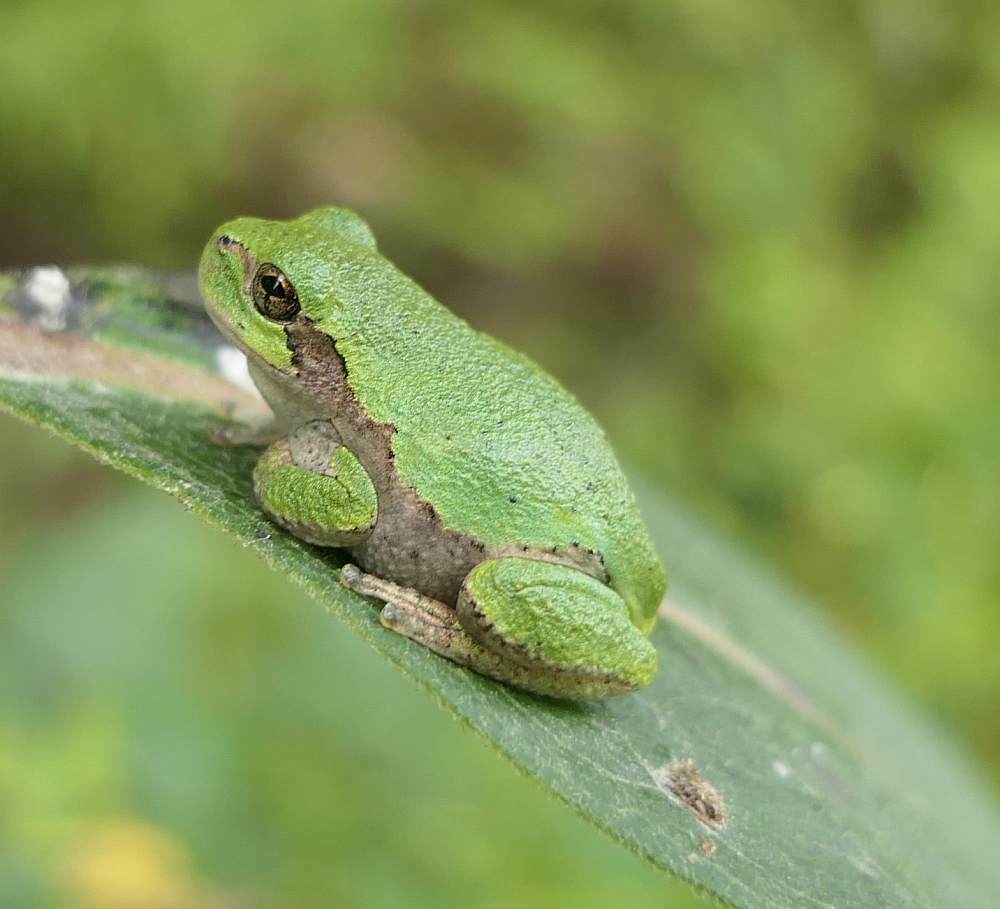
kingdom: Animalia
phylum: Chordata
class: Amphibia
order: Anura
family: Hylidae
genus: Dryophytes
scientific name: Dryophytes versicolor
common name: Gray treefrog
